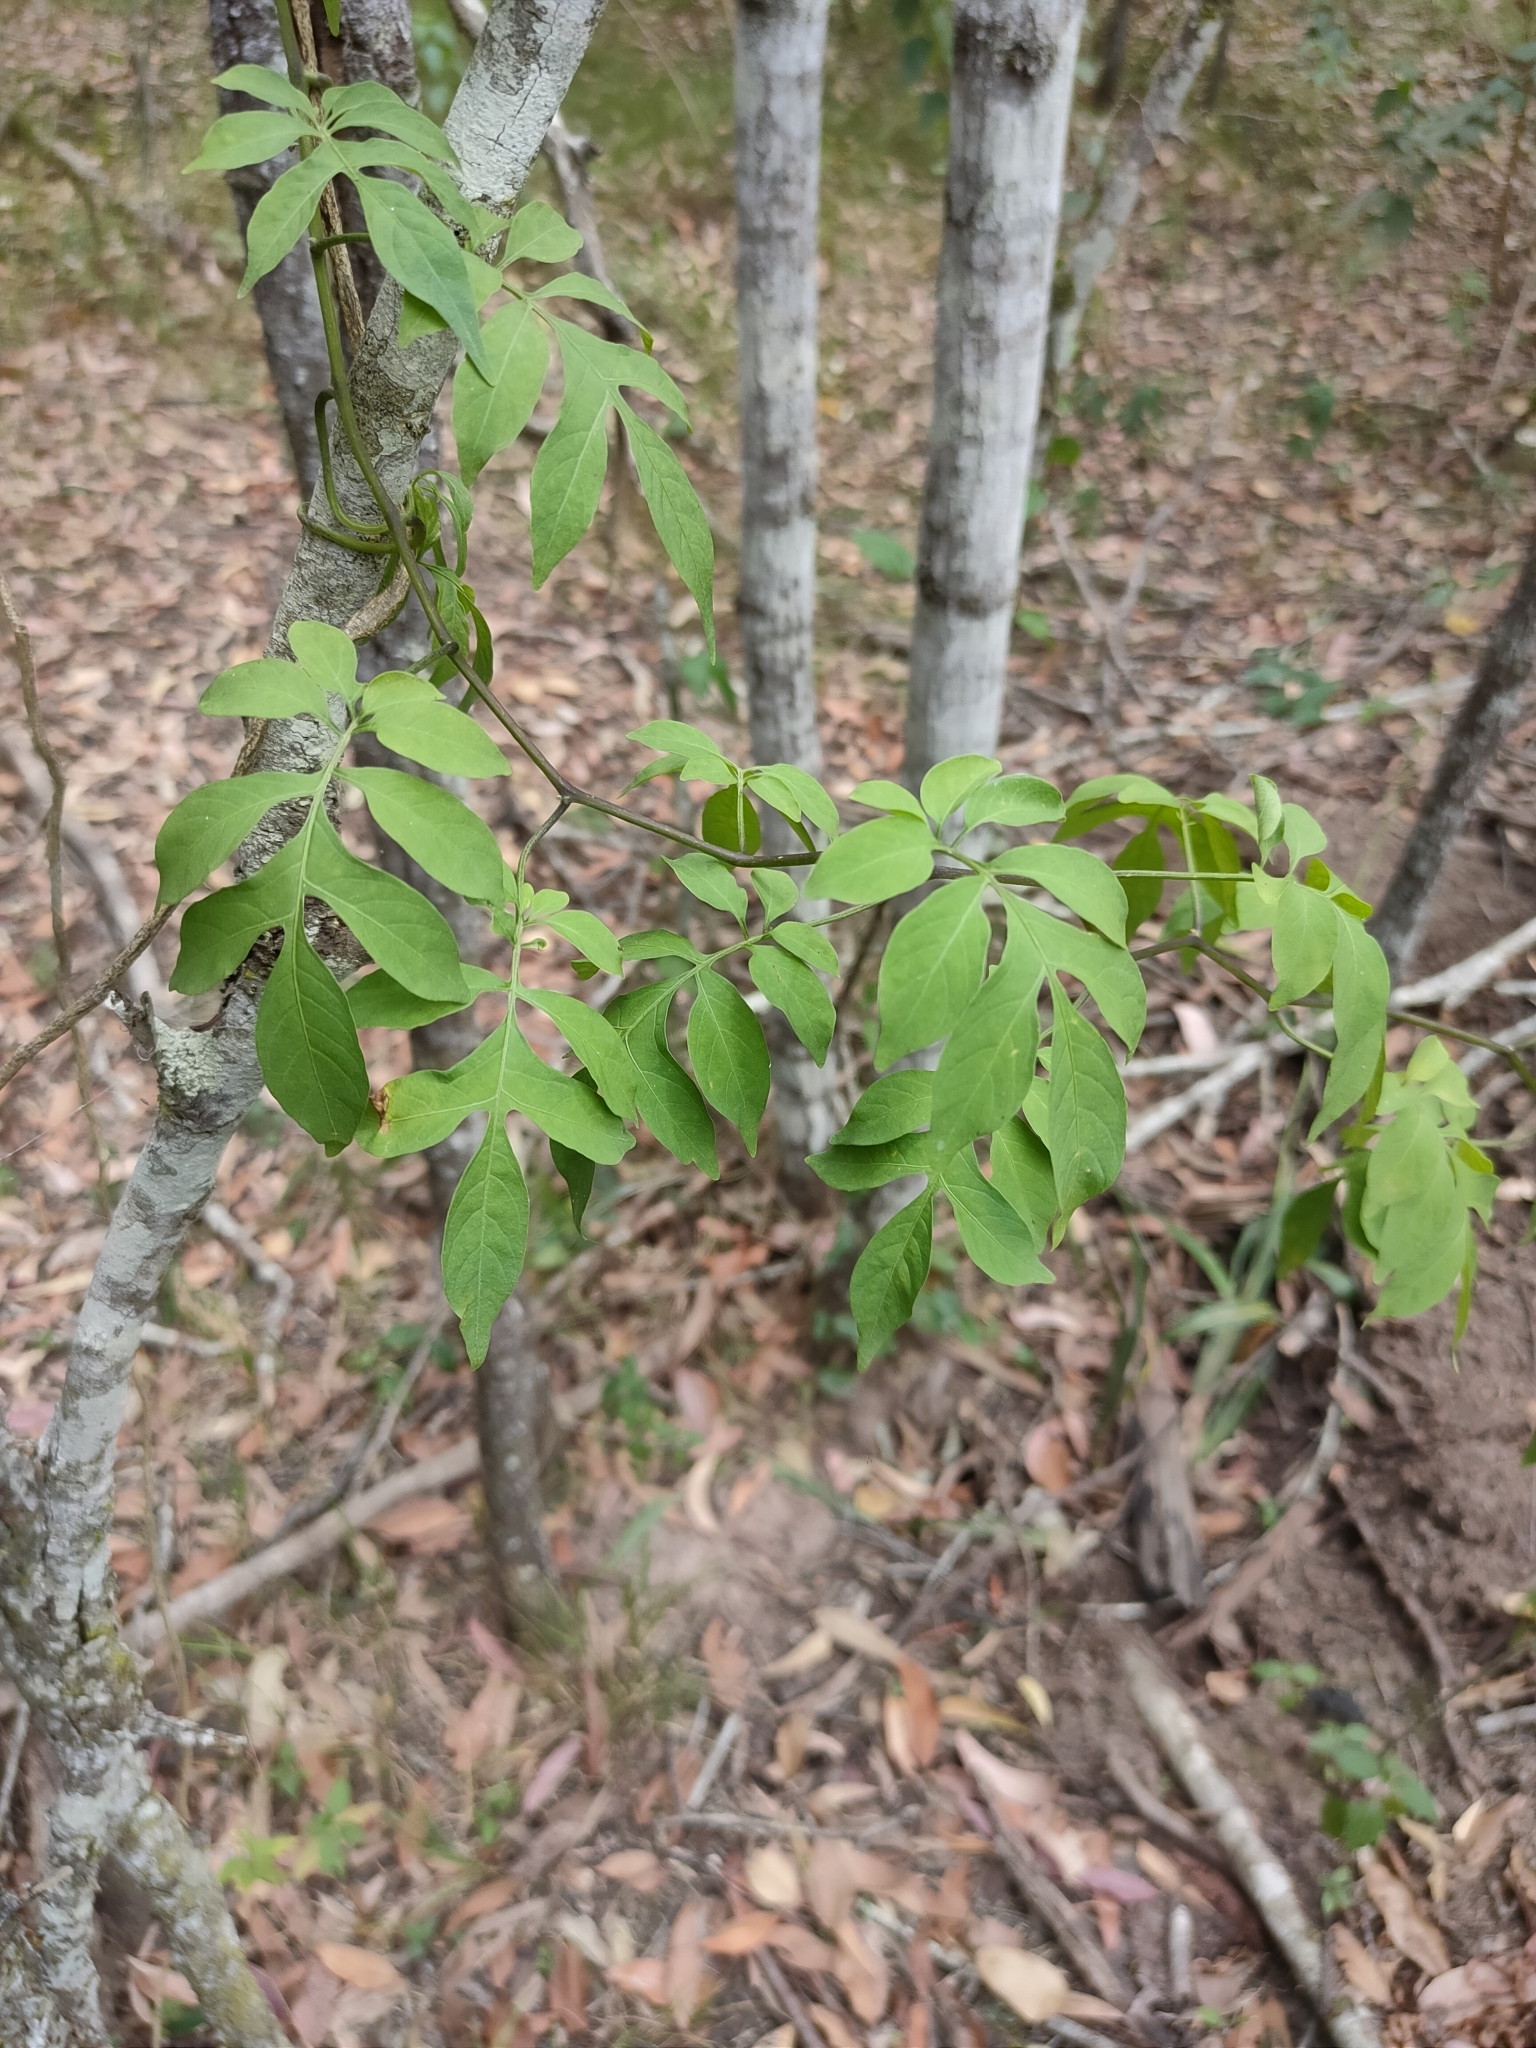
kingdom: Plantae
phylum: Tracheophyta
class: Magnoliopsida
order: Solanales
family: Solanaceae
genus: Solanum
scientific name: Solanum seaforthianum
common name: Brazilian nightshade
